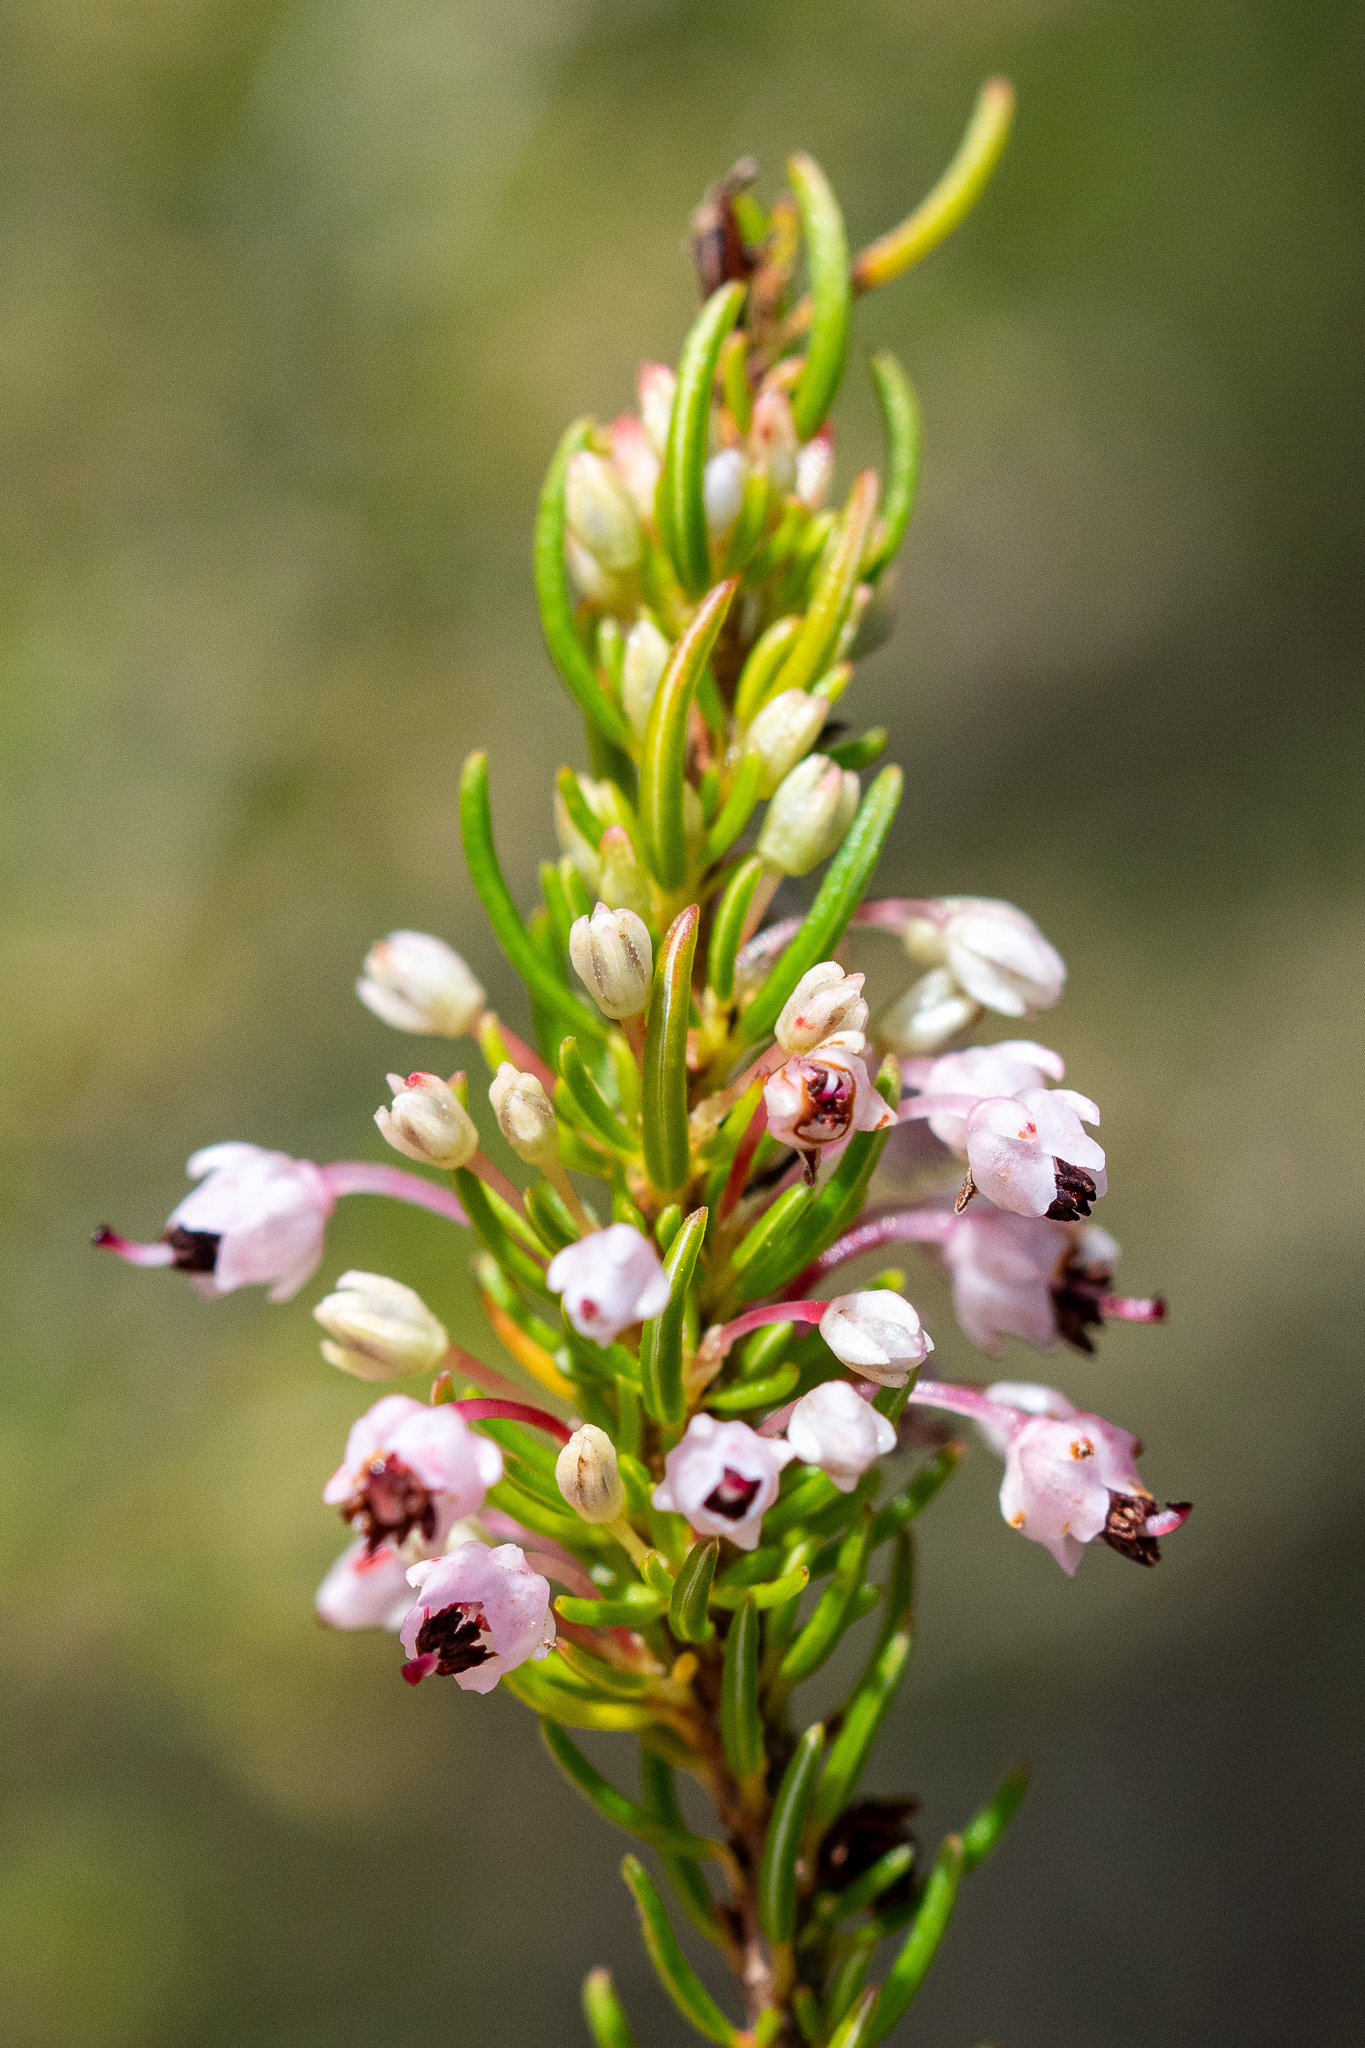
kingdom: Plantae
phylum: Tracheophyta
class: Magnoliopsida
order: Ericales
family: Ericaceae
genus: Erica
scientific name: Erica rubiginosa
